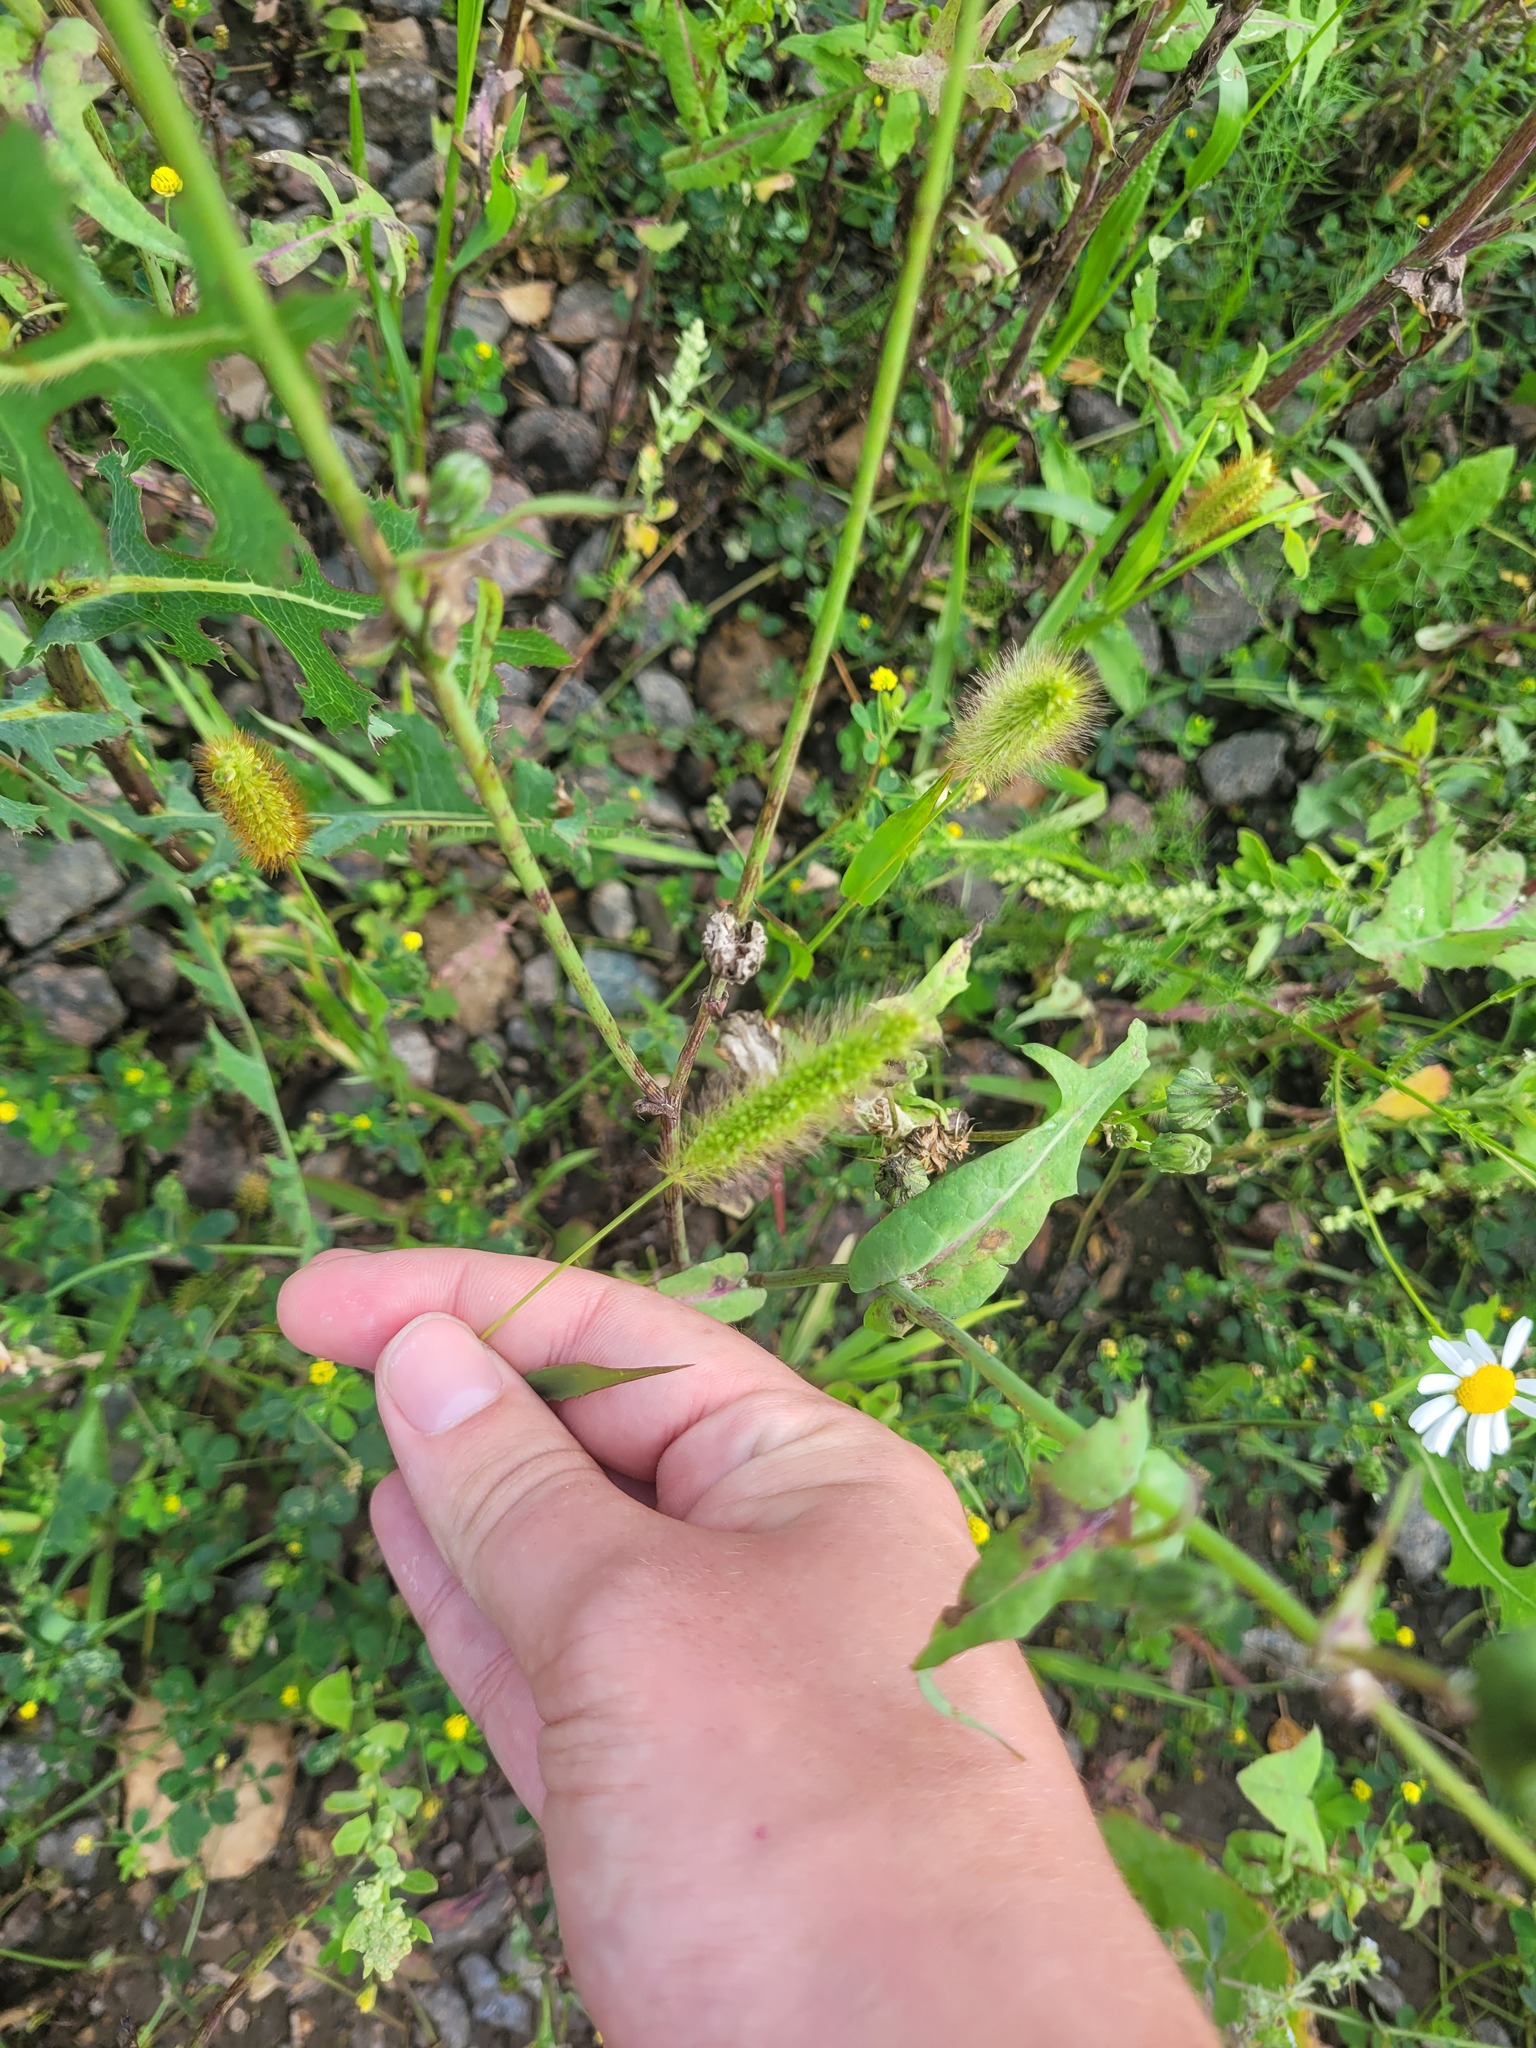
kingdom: Plantae
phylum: Tracheophyta
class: Liliopsida
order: Poales
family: Poaceae
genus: Setaria
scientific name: Setaria viridis
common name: Green bristlegrass
